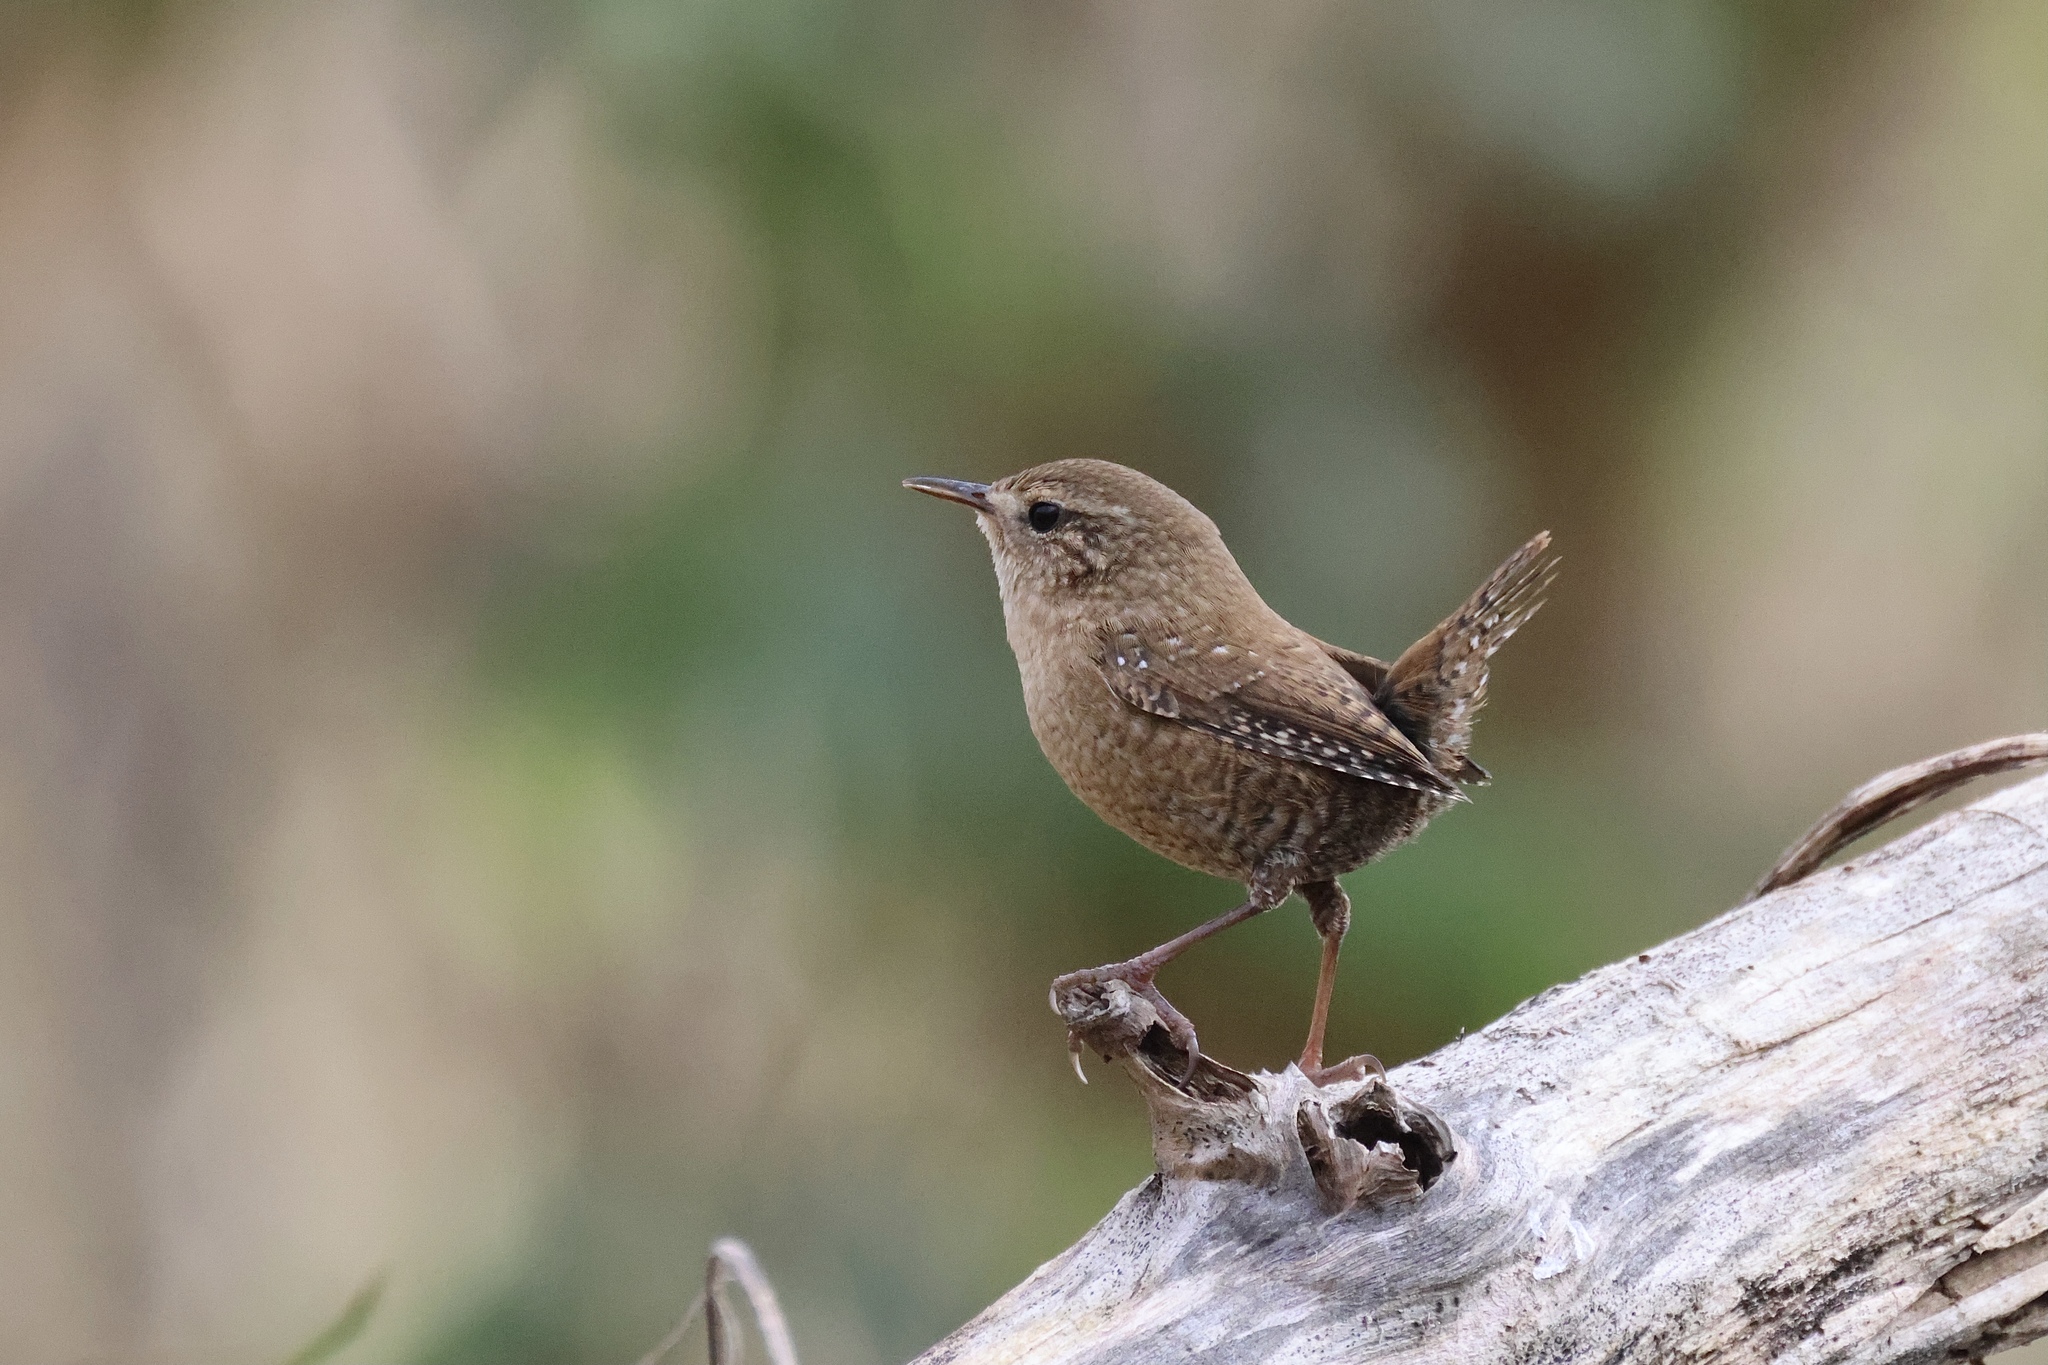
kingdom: Animalia
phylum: Chordata
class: Aves
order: Passeriformes
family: Troglodytidae
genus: Troglodytes
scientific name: Troglodytes hiemalis
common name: Winter wren
